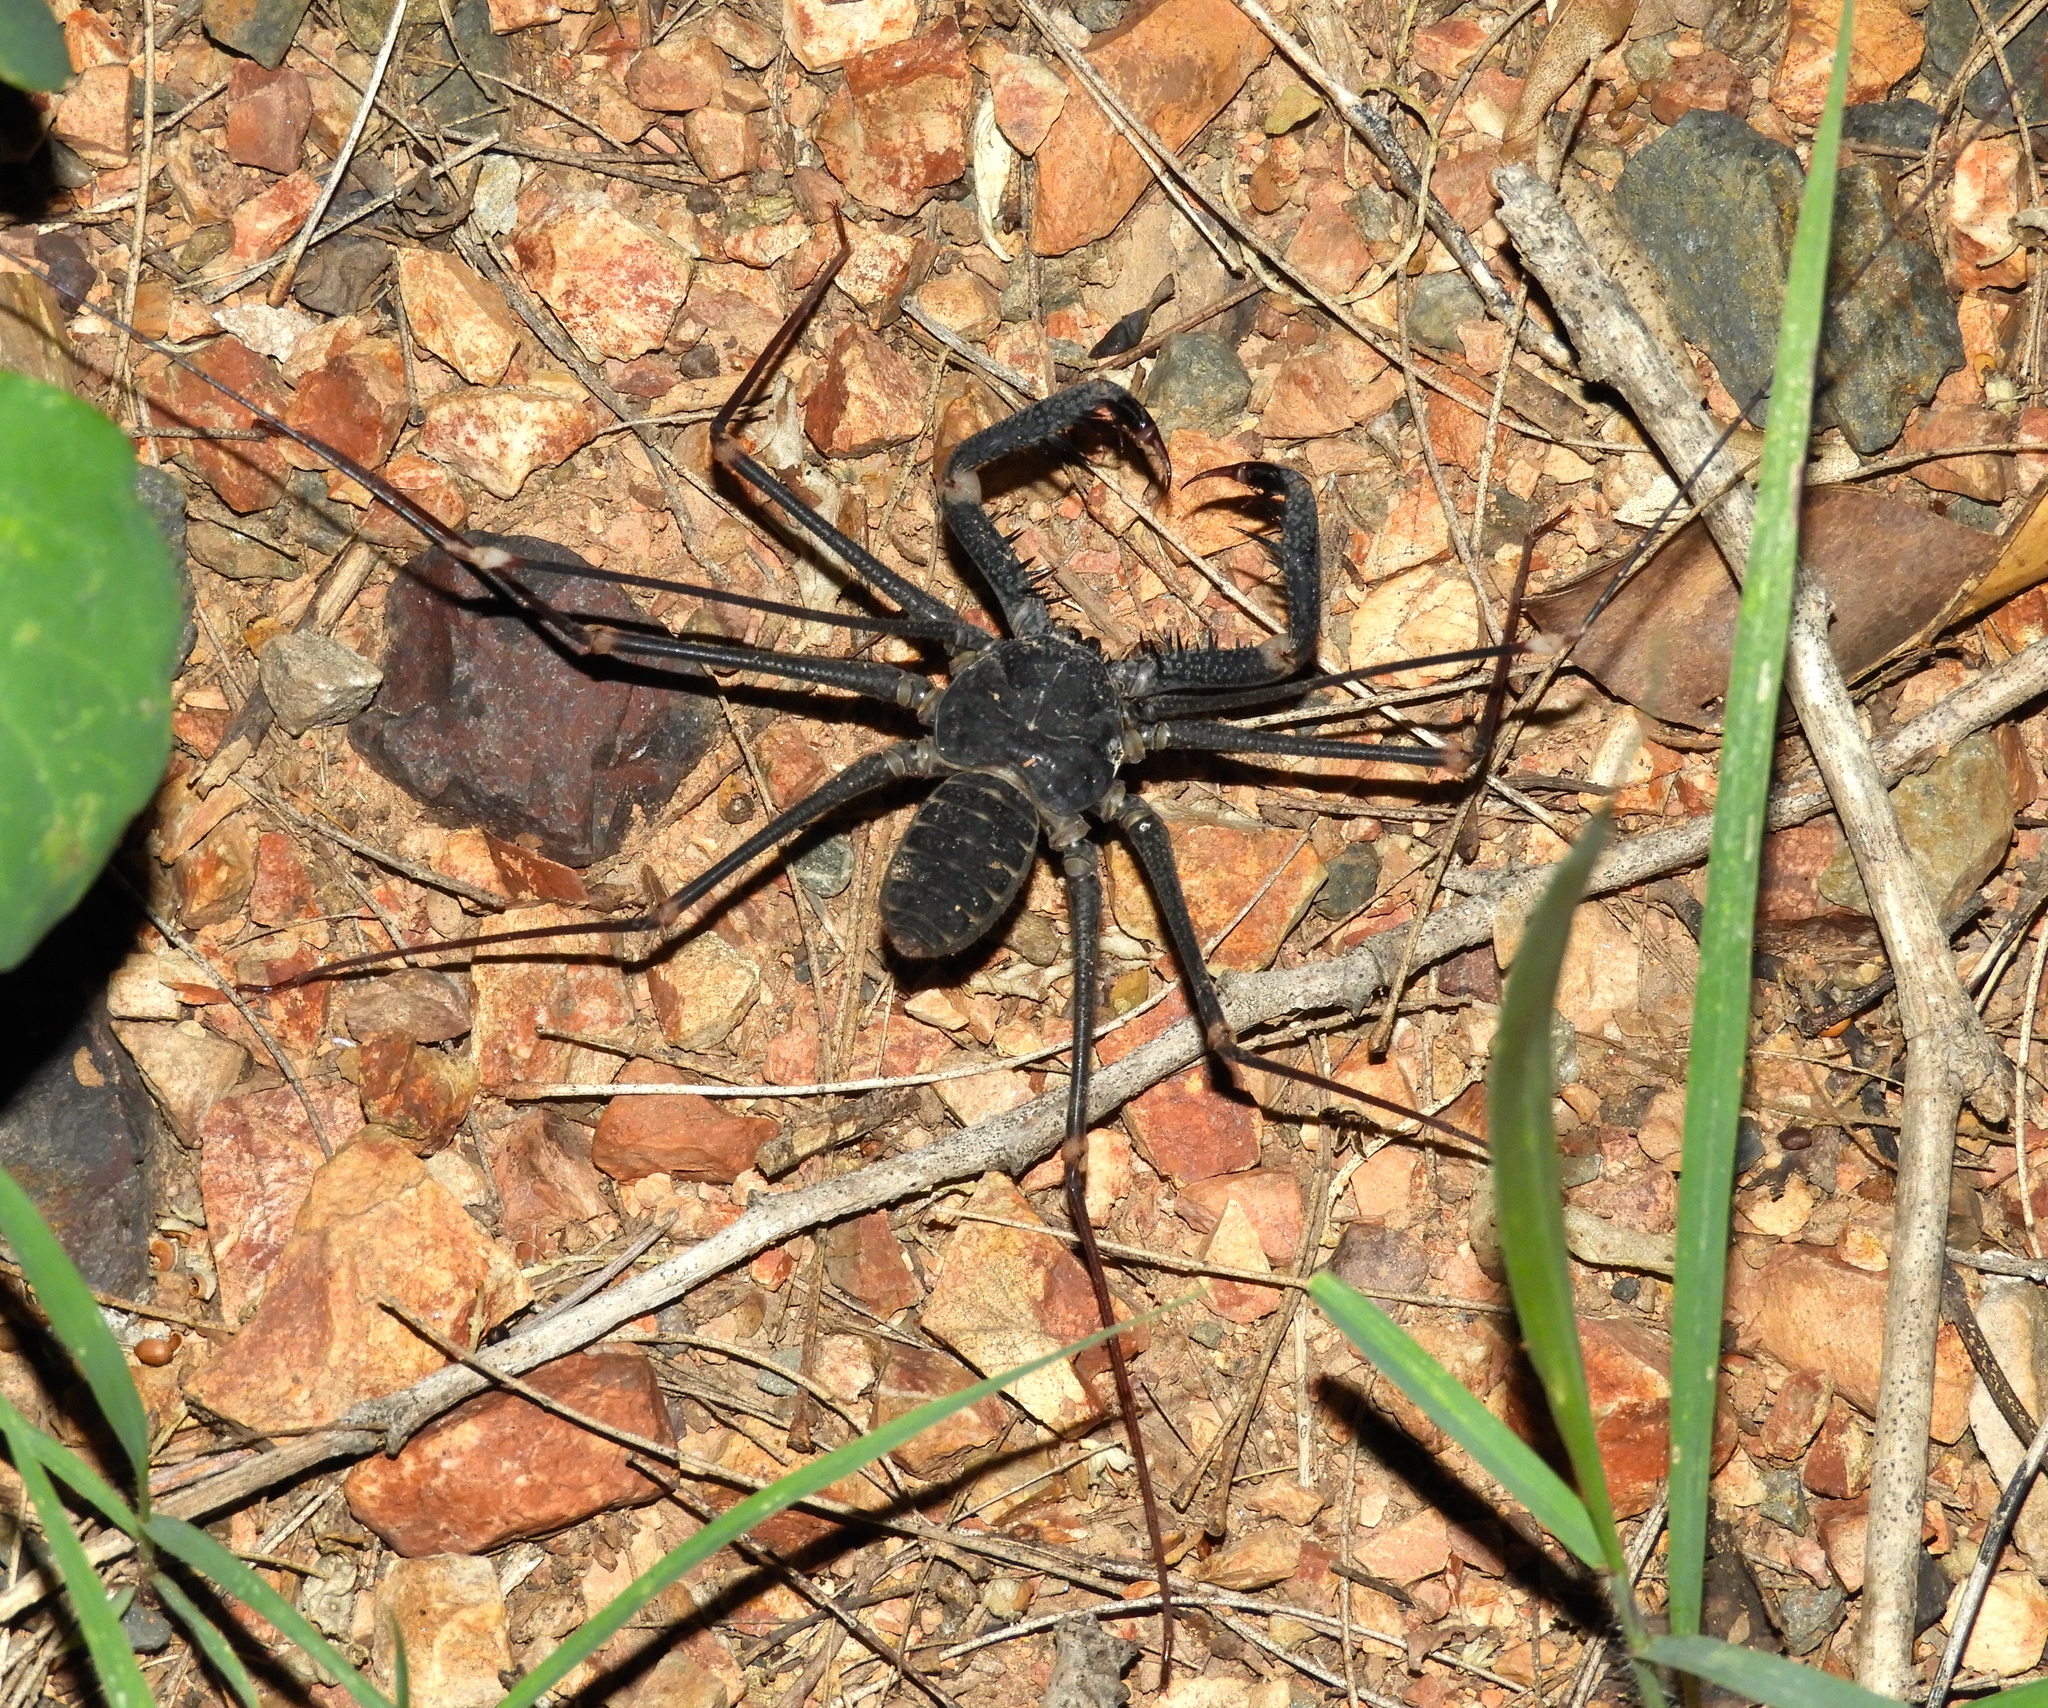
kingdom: Animalia
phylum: Arthropoda
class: Arachnida
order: Amblypygi
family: Phrynidae
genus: Acanthophrynus
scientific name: Acanthophrynus coronatus
